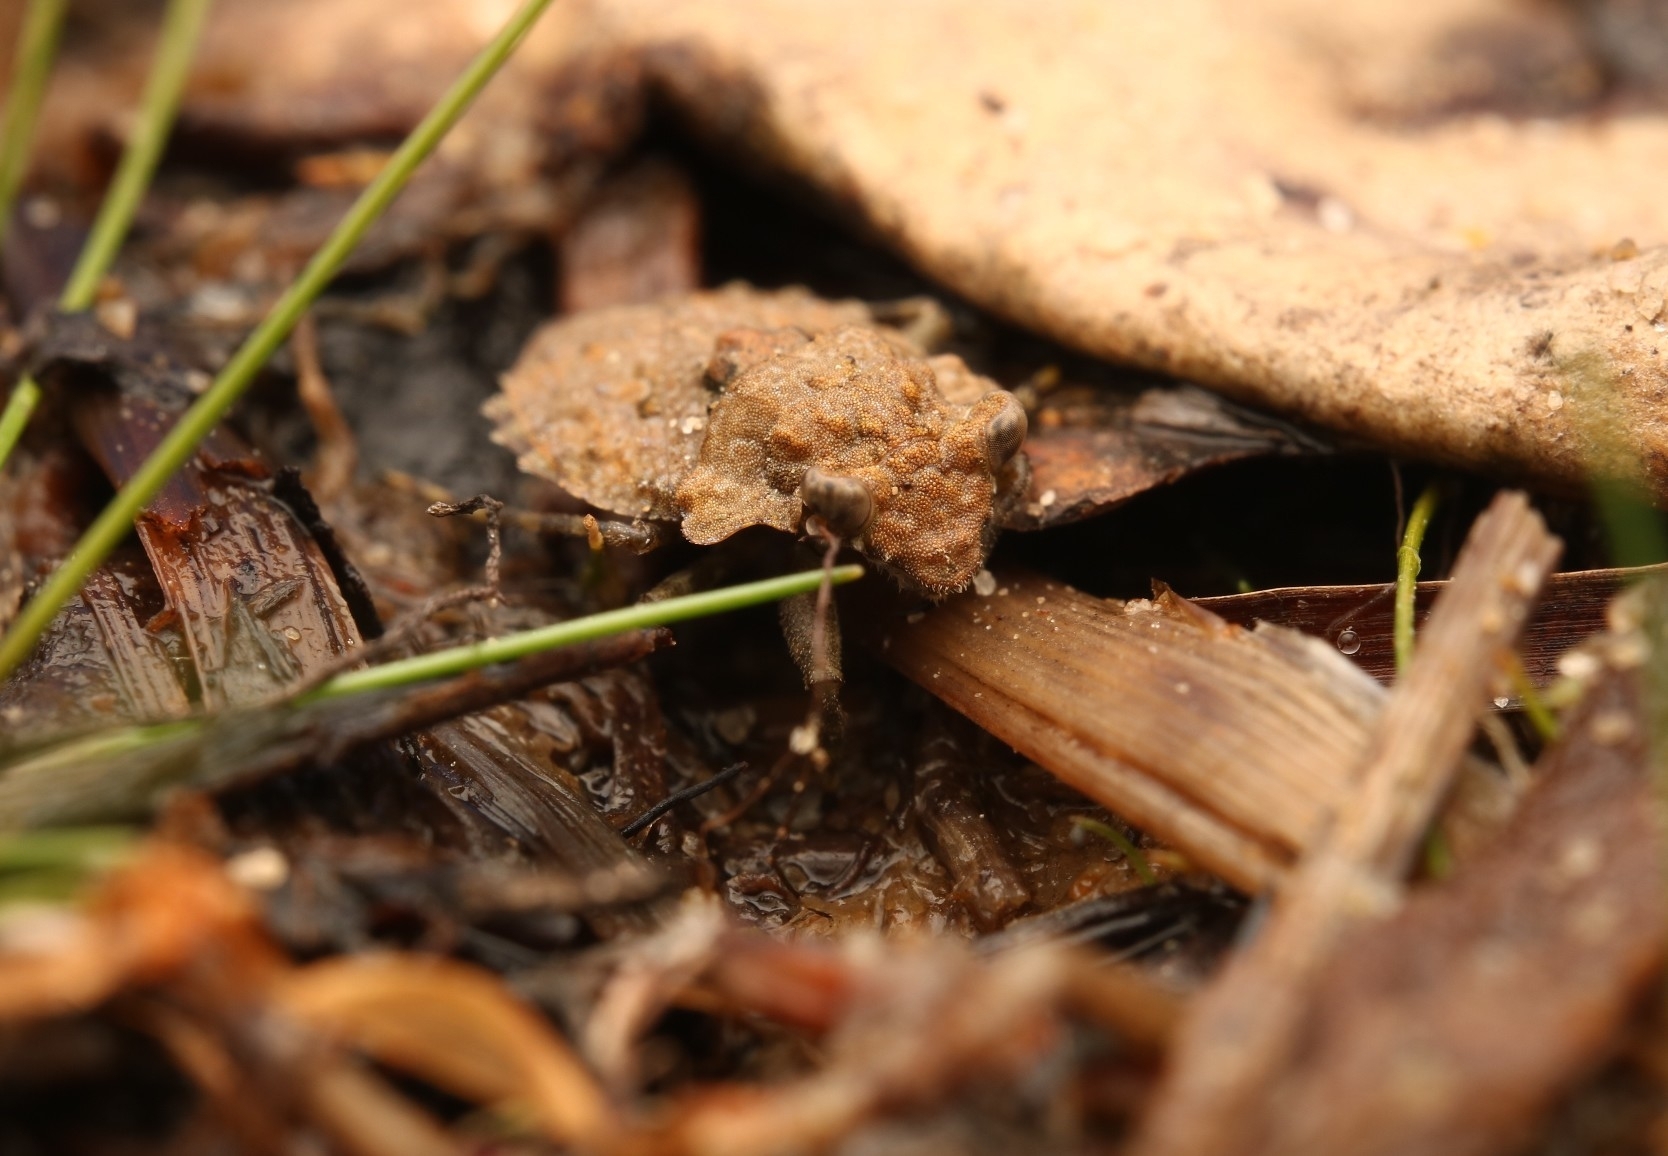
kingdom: Animalia
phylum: Arthropoda
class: Insecta
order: Hemiptera
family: Gelastocoridae
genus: Gelastocoris
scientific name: Gelastocoris oculatus
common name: Toad bug
